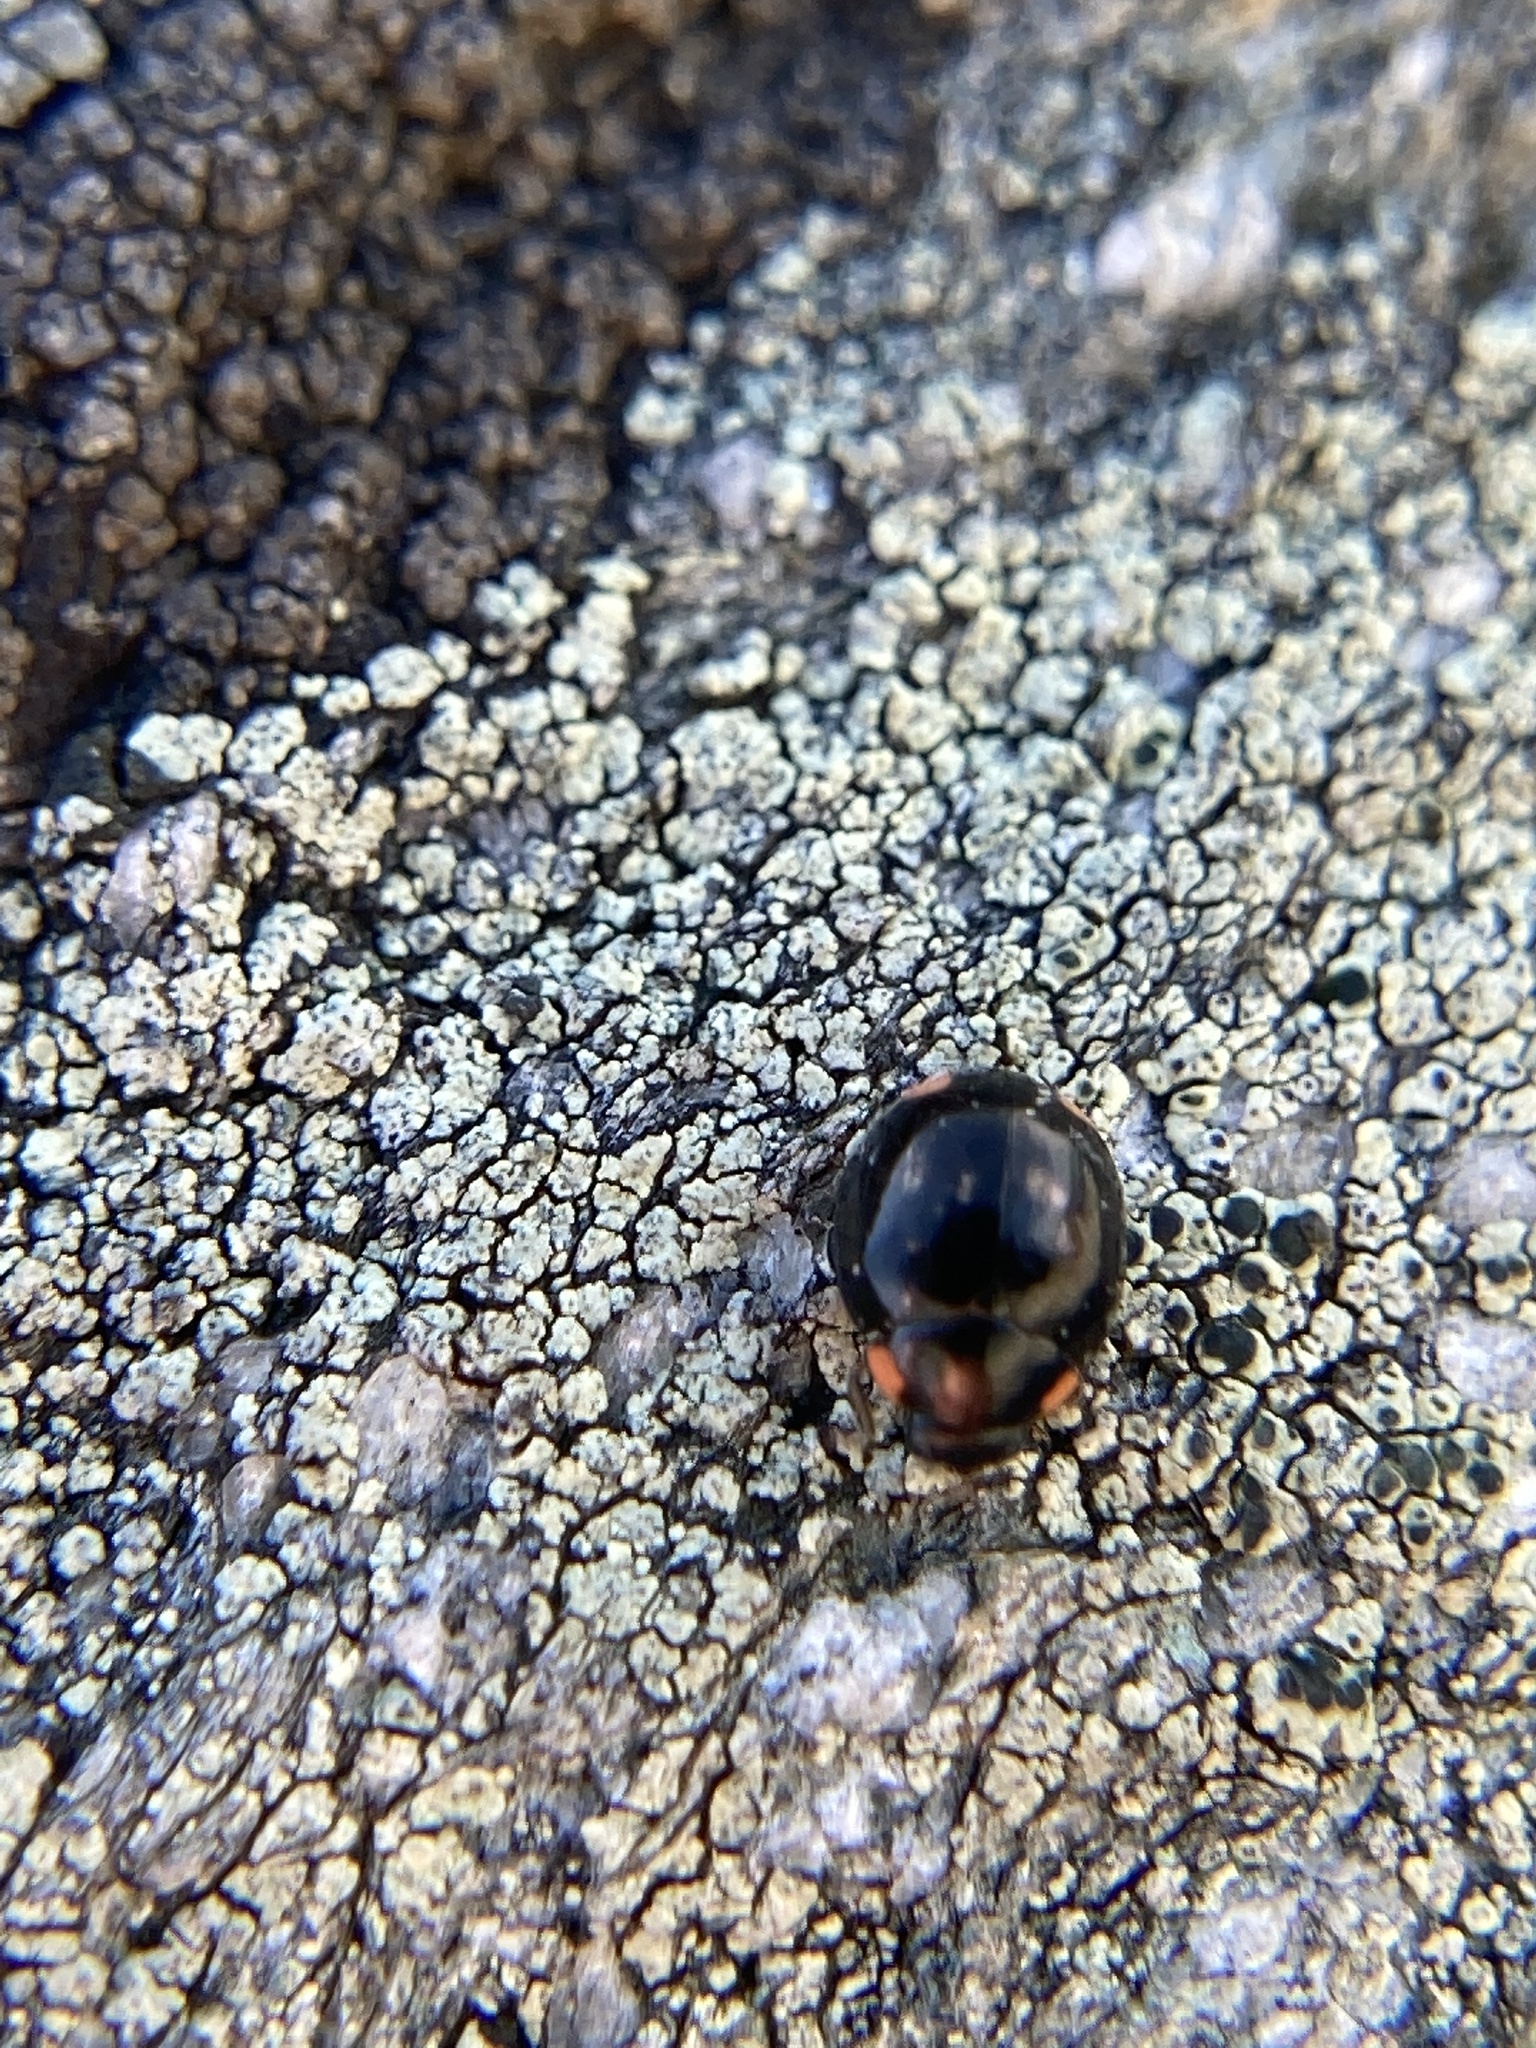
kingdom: Animalia
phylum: Arthropoda
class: Insecta
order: Coleoptera
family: Coccinellidae
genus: Hyperaspis
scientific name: Hyperaspis bigeminata
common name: Bigeminate sigil lady beetle
